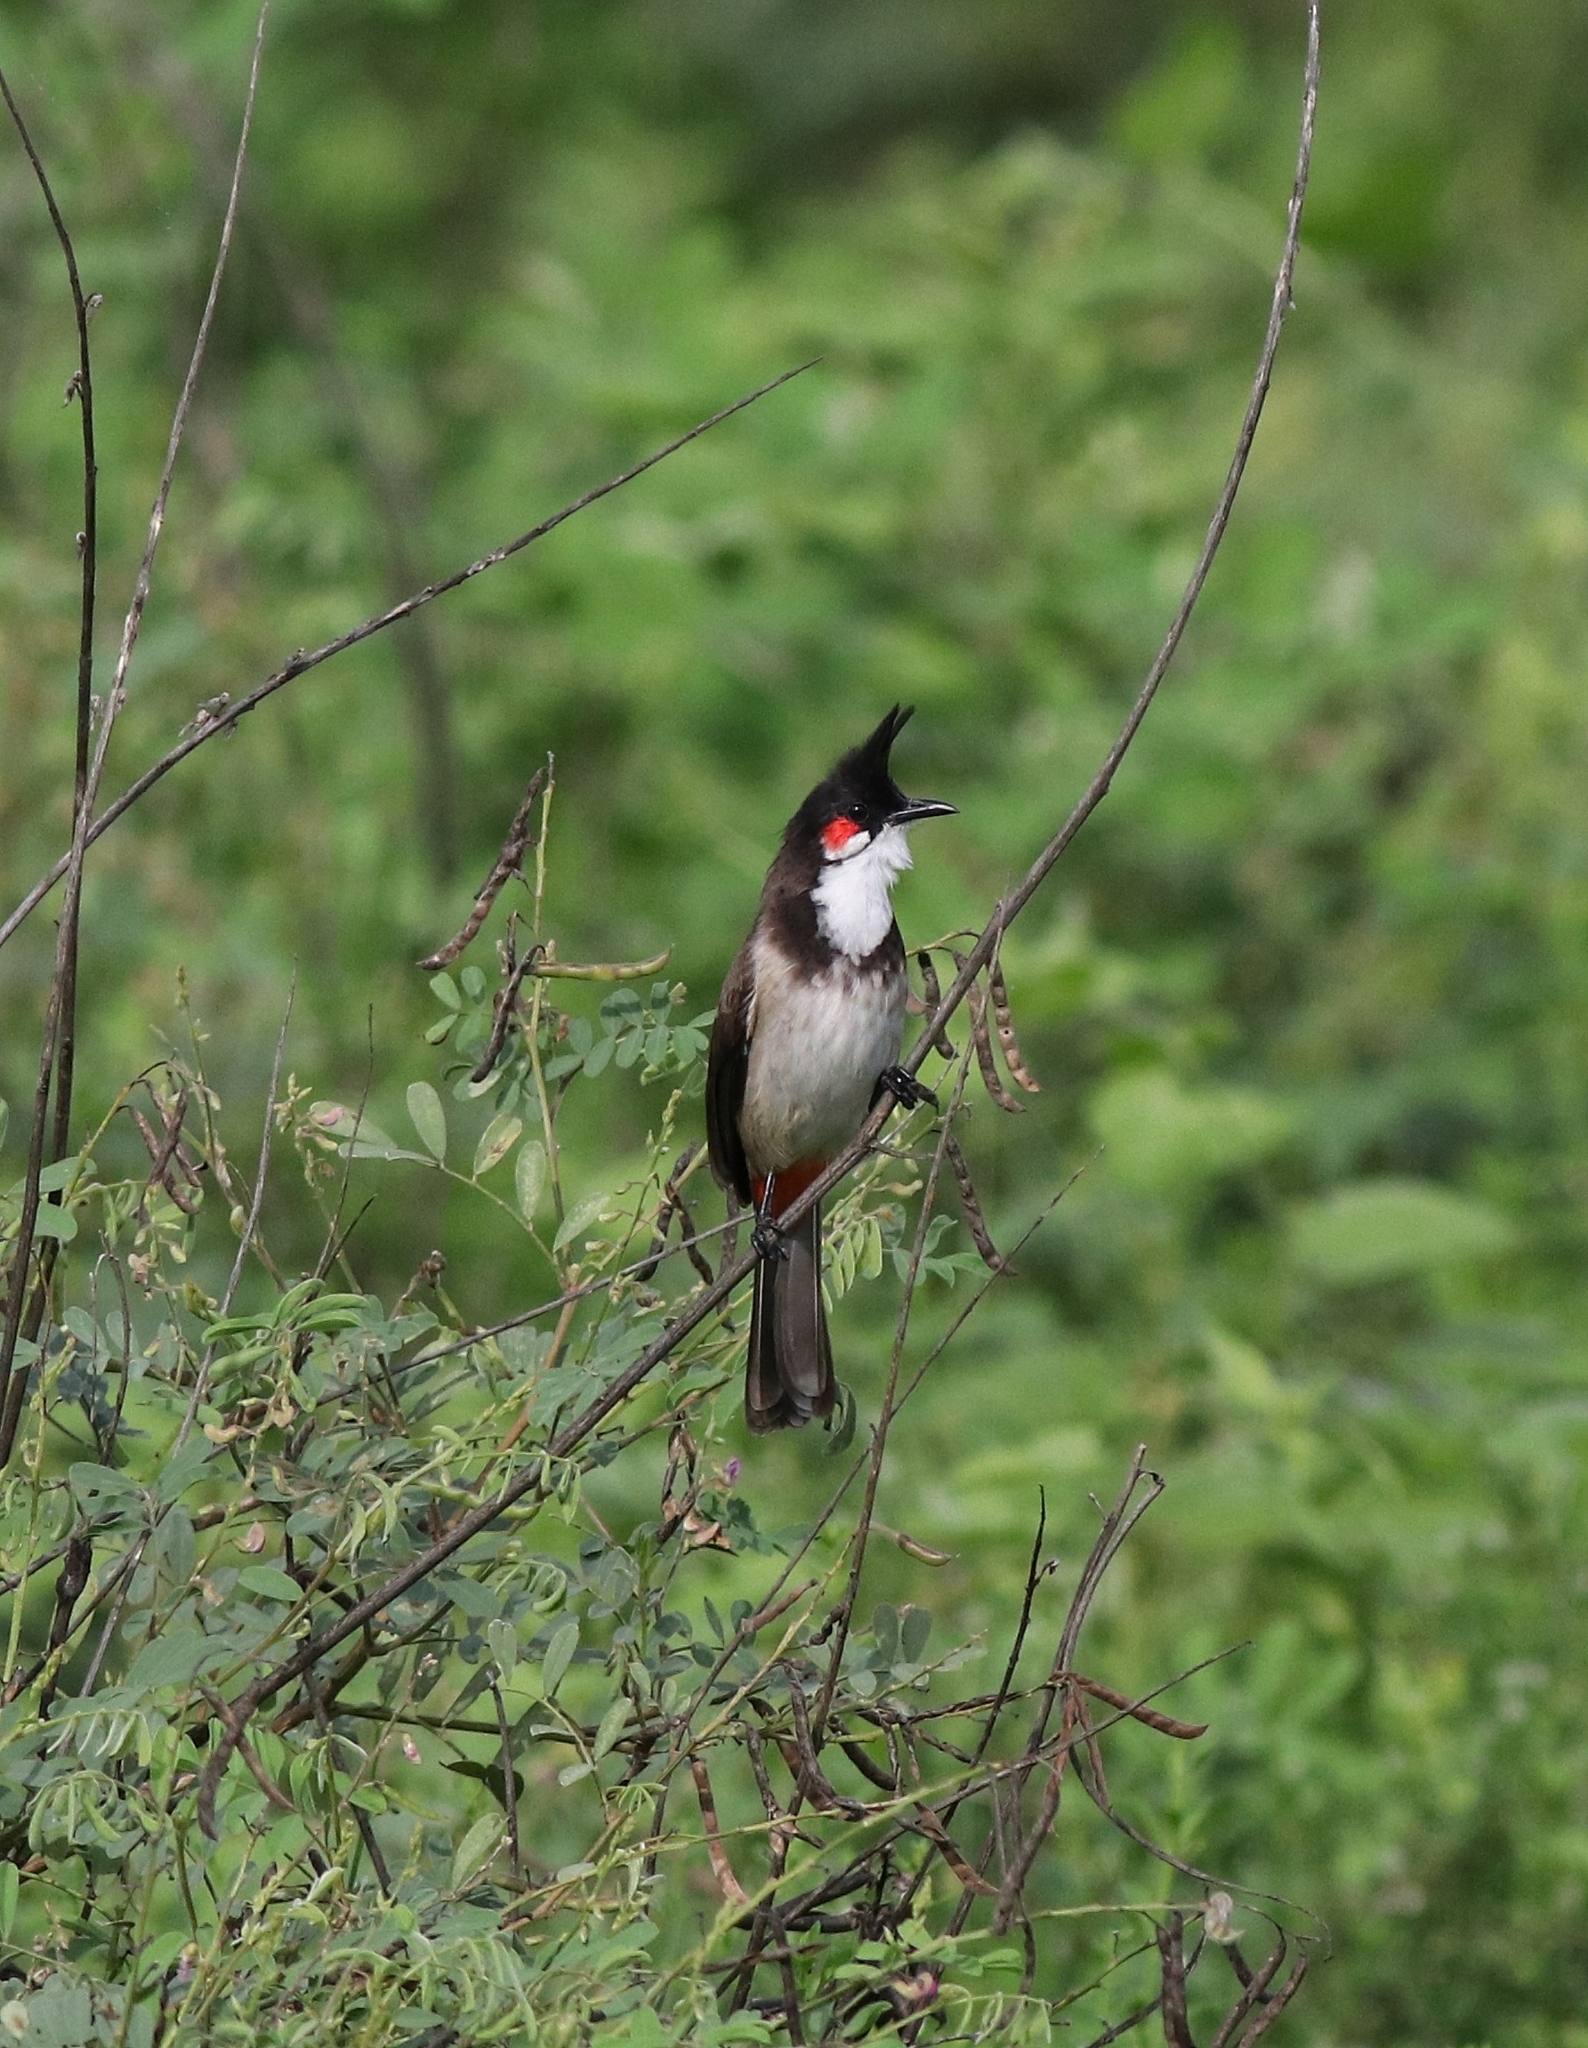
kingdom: Animalia
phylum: Chordata
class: Aves
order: Passeriformes
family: Pycnonotidae
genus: Pycnonotus
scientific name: Pycnonotus jocosus
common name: Red-whiskered bulbul
